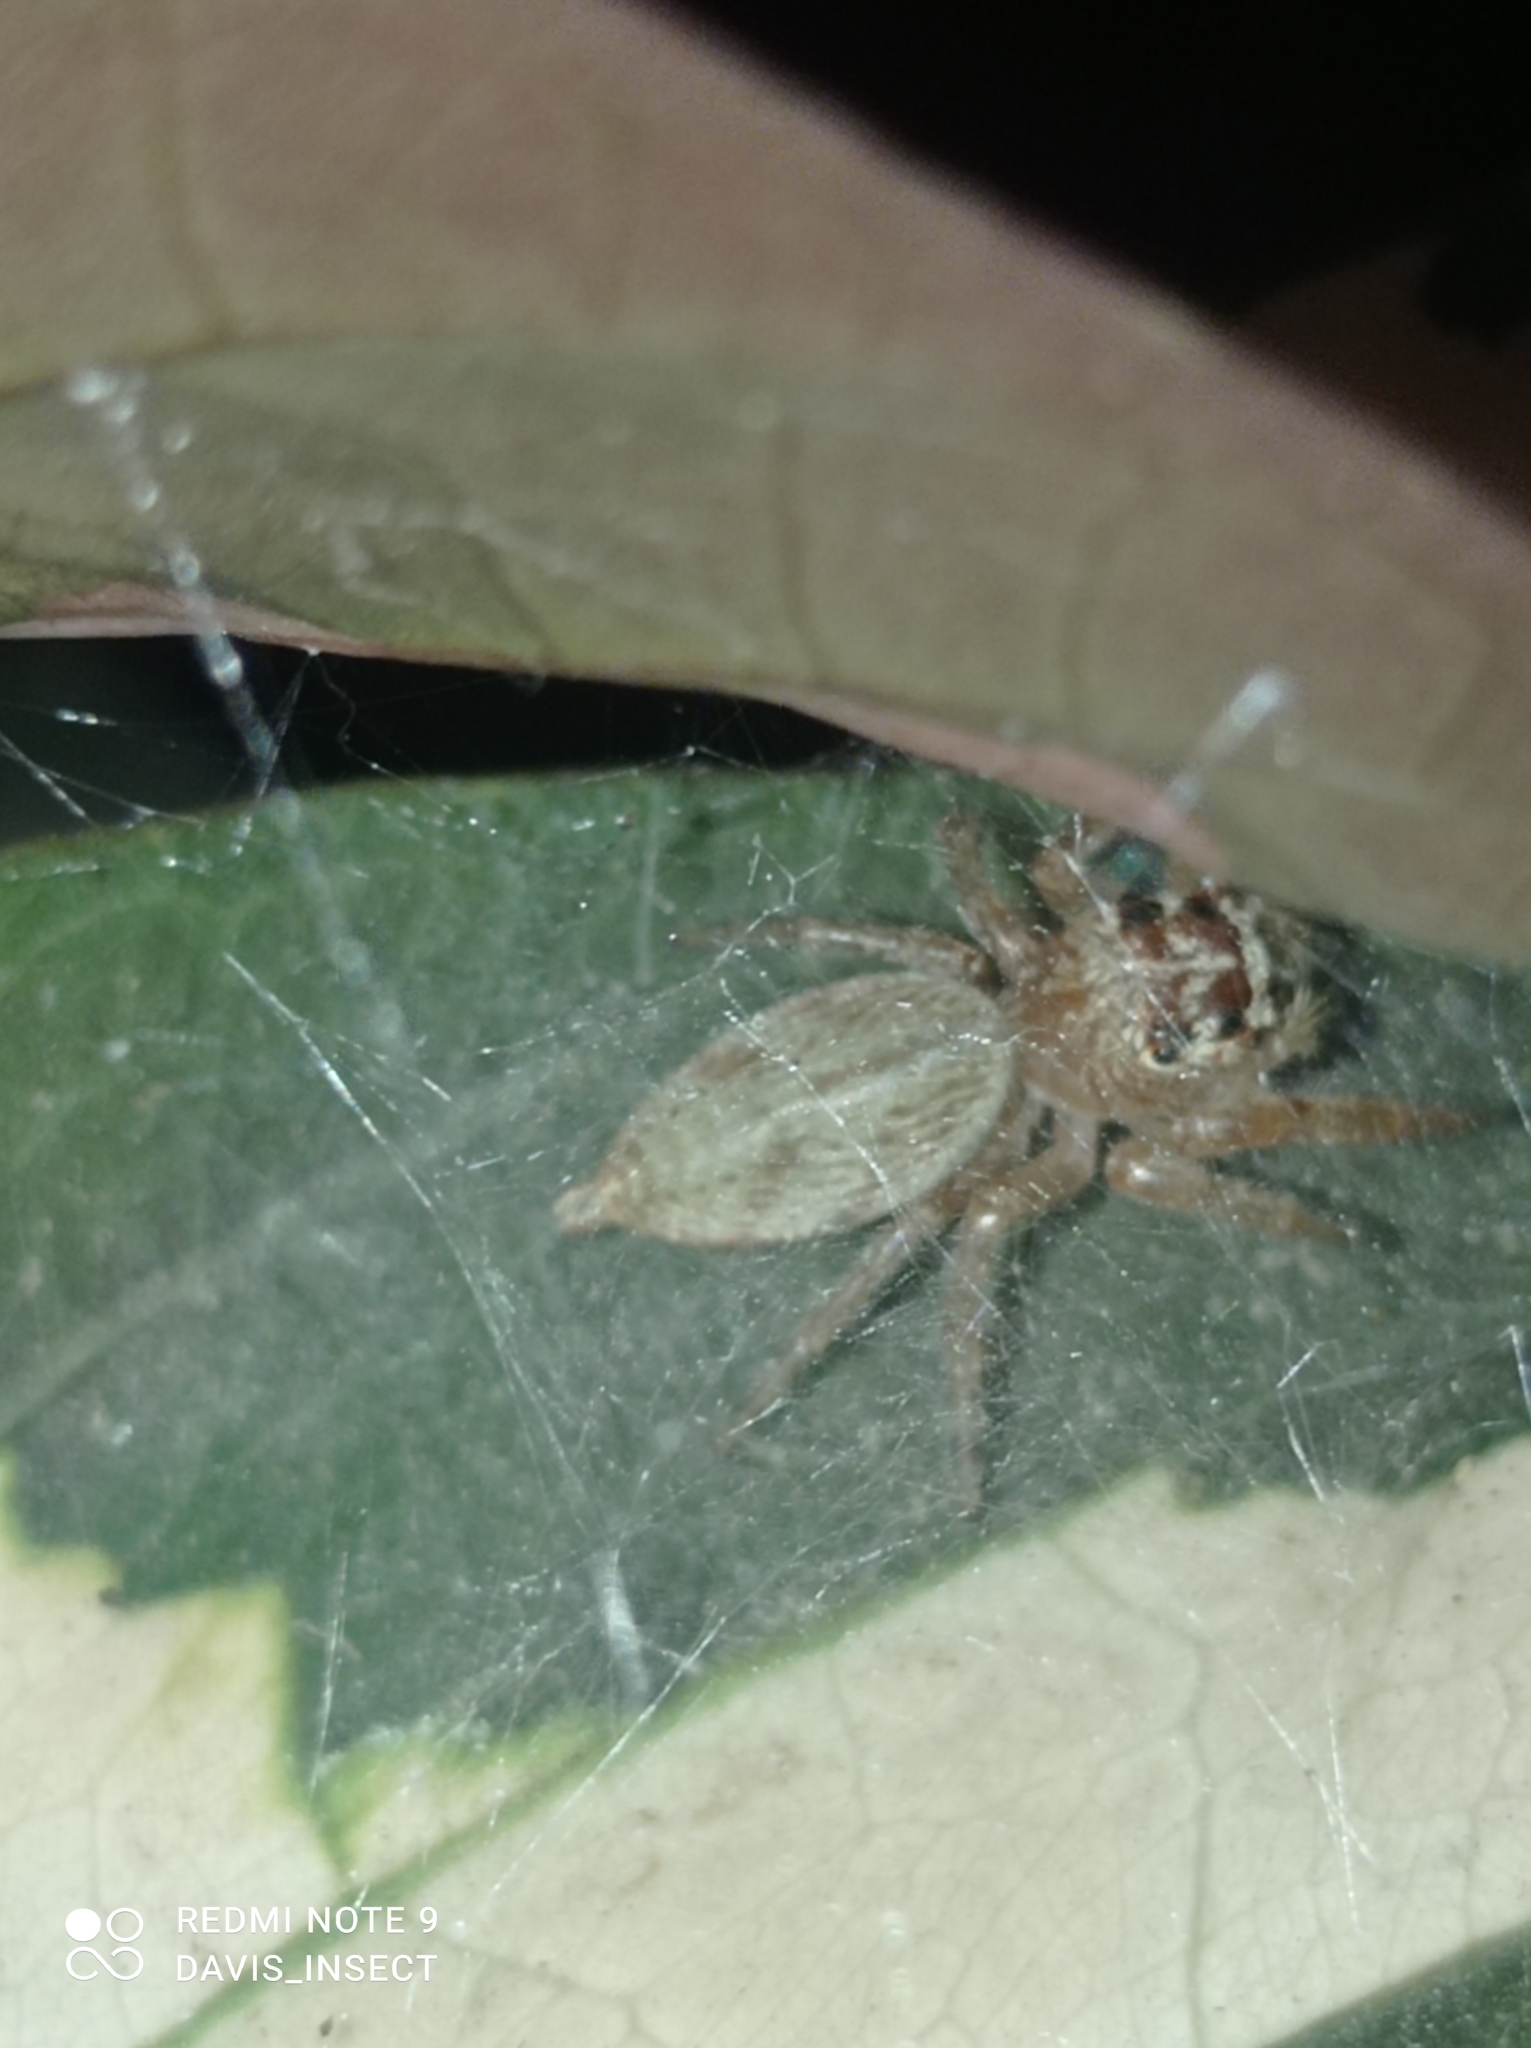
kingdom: Animalia
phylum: Arthropoda
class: Arachnida
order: Araneae
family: Salticidae
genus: Artabrus
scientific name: Artabrus aurantipilosus
